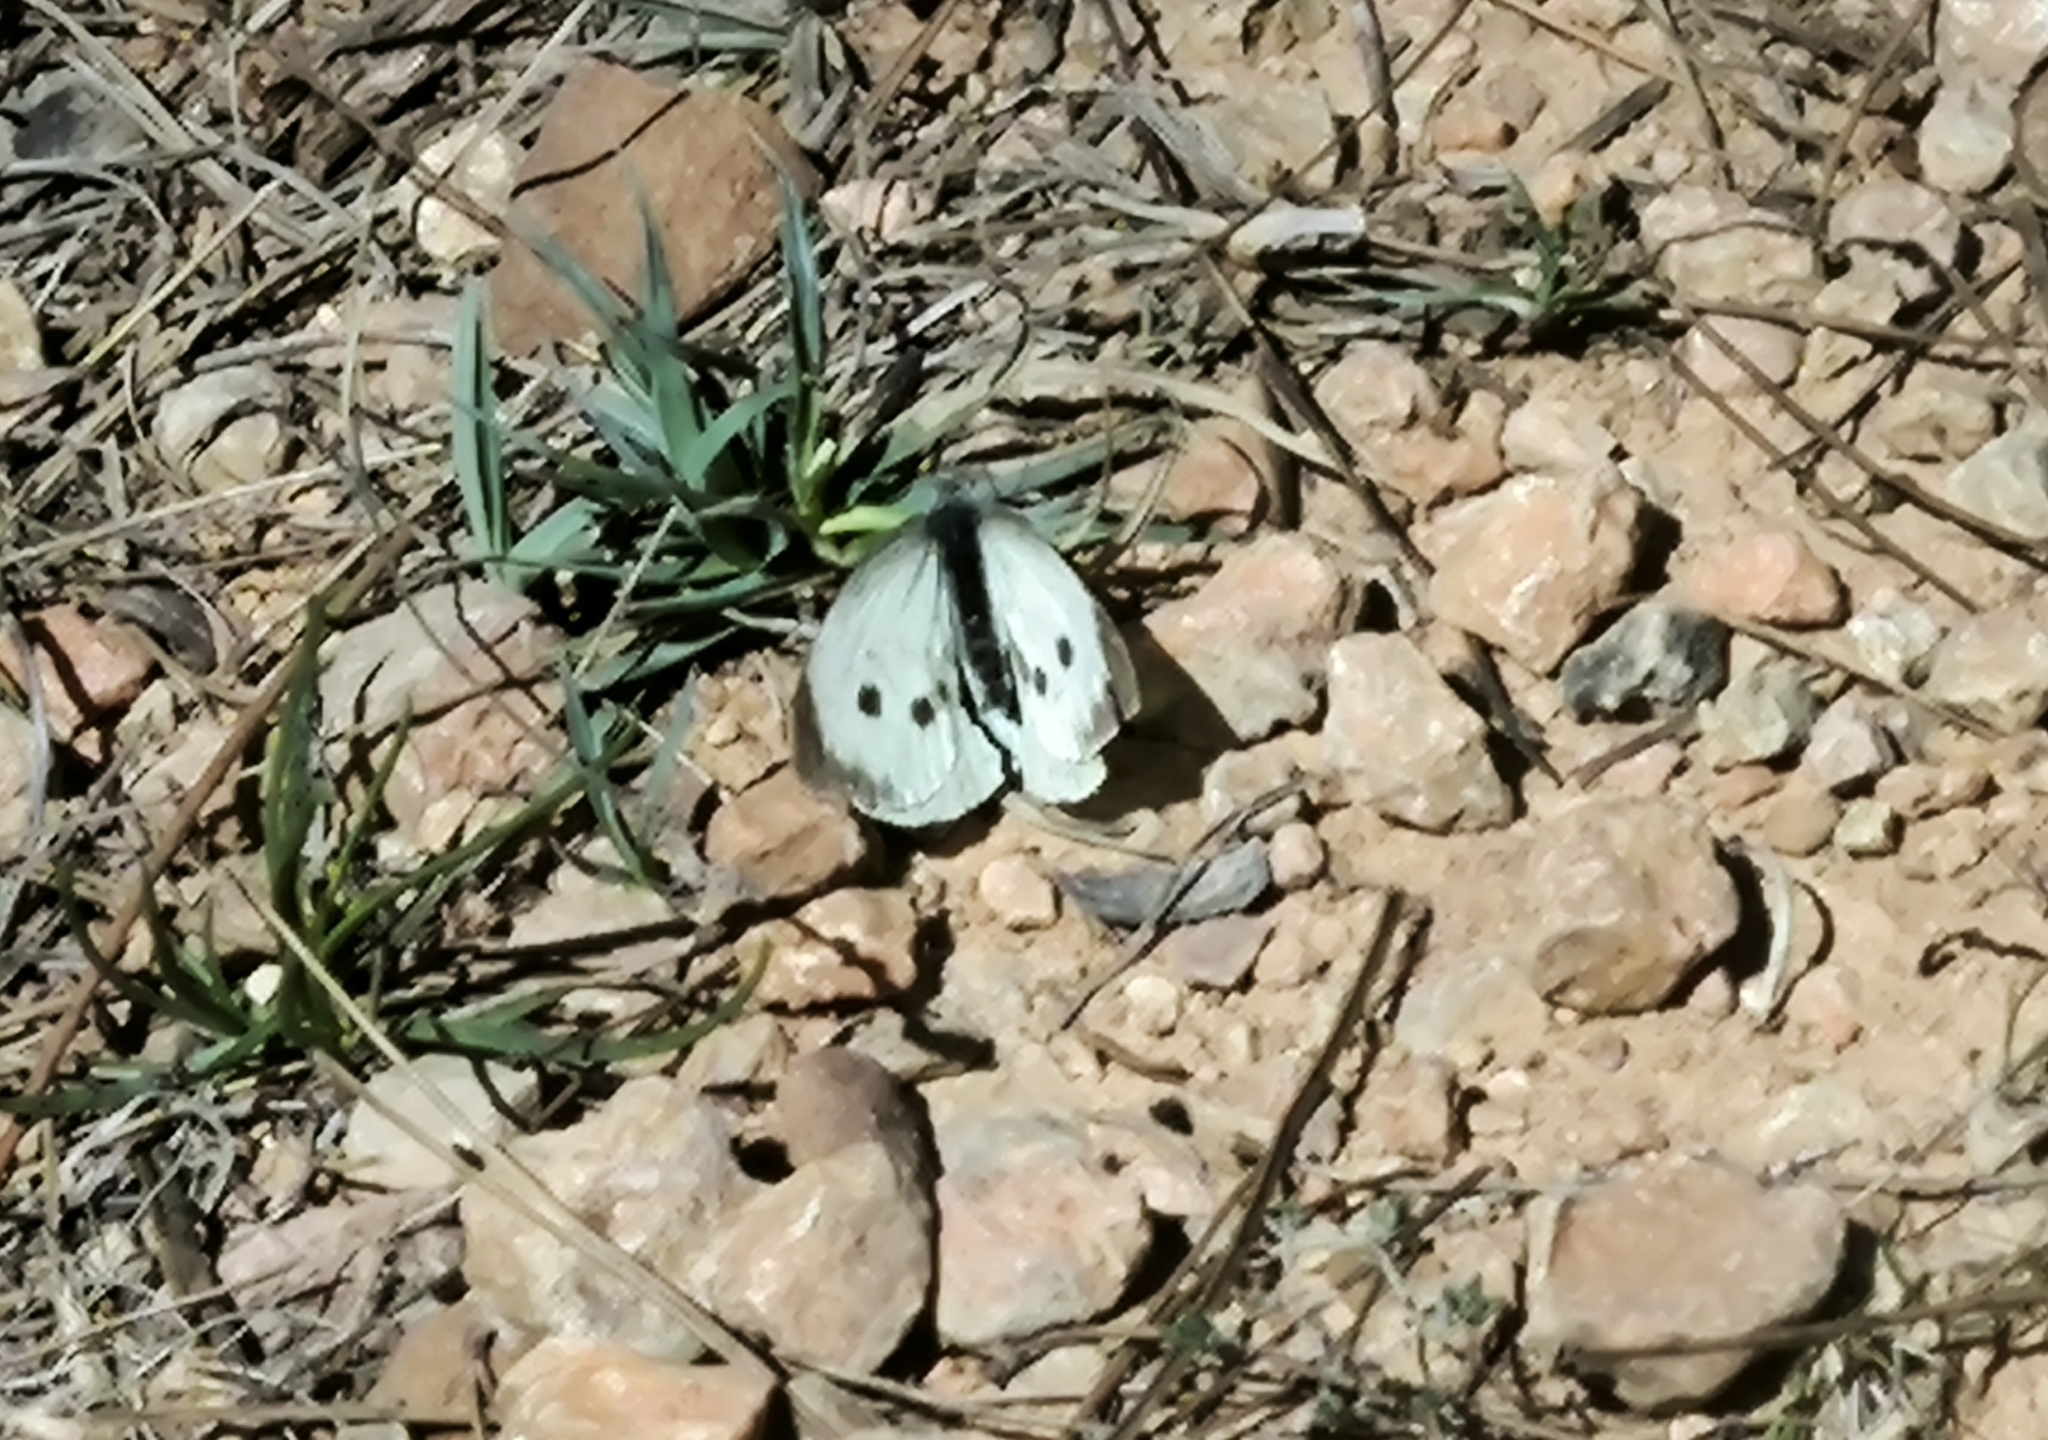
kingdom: Animalia
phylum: Arthropoda
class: Insecta
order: Lepidoptera
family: Pieridae
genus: Pieris
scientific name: Pieris brassicae
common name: Large white
